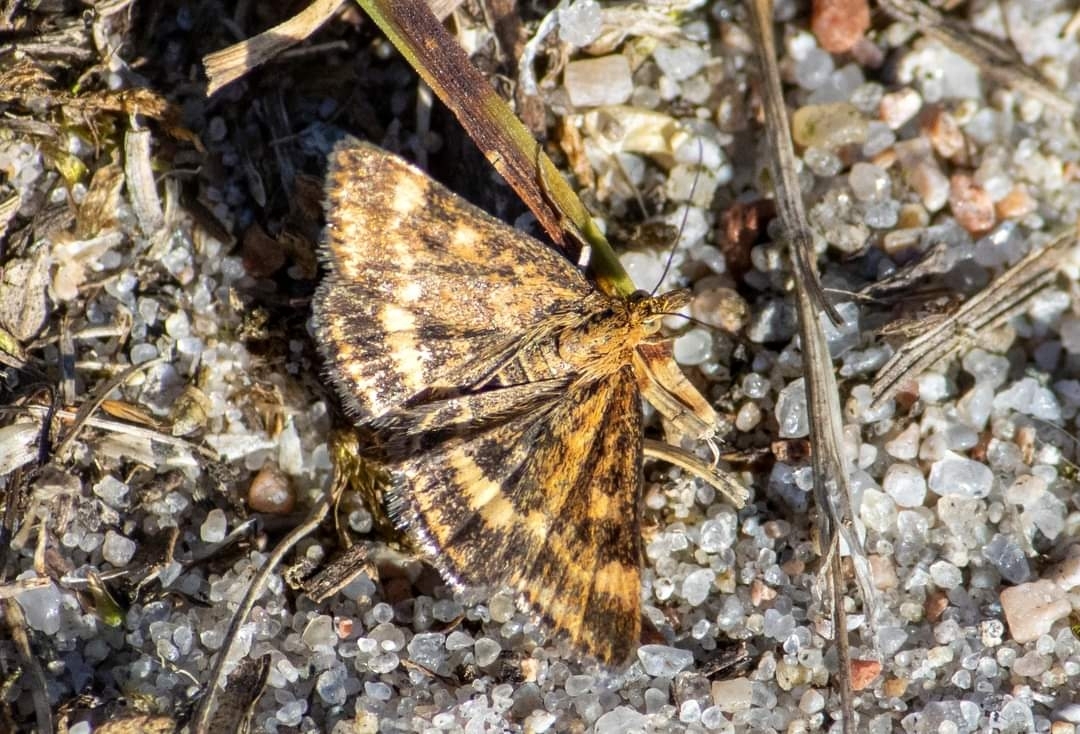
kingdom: Animalia
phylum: Arthropoda
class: Insecta
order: Lepidoptera
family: Crambidae
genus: Pyrausta
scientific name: Pyrausta despicata
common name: Straw-barred pearl
